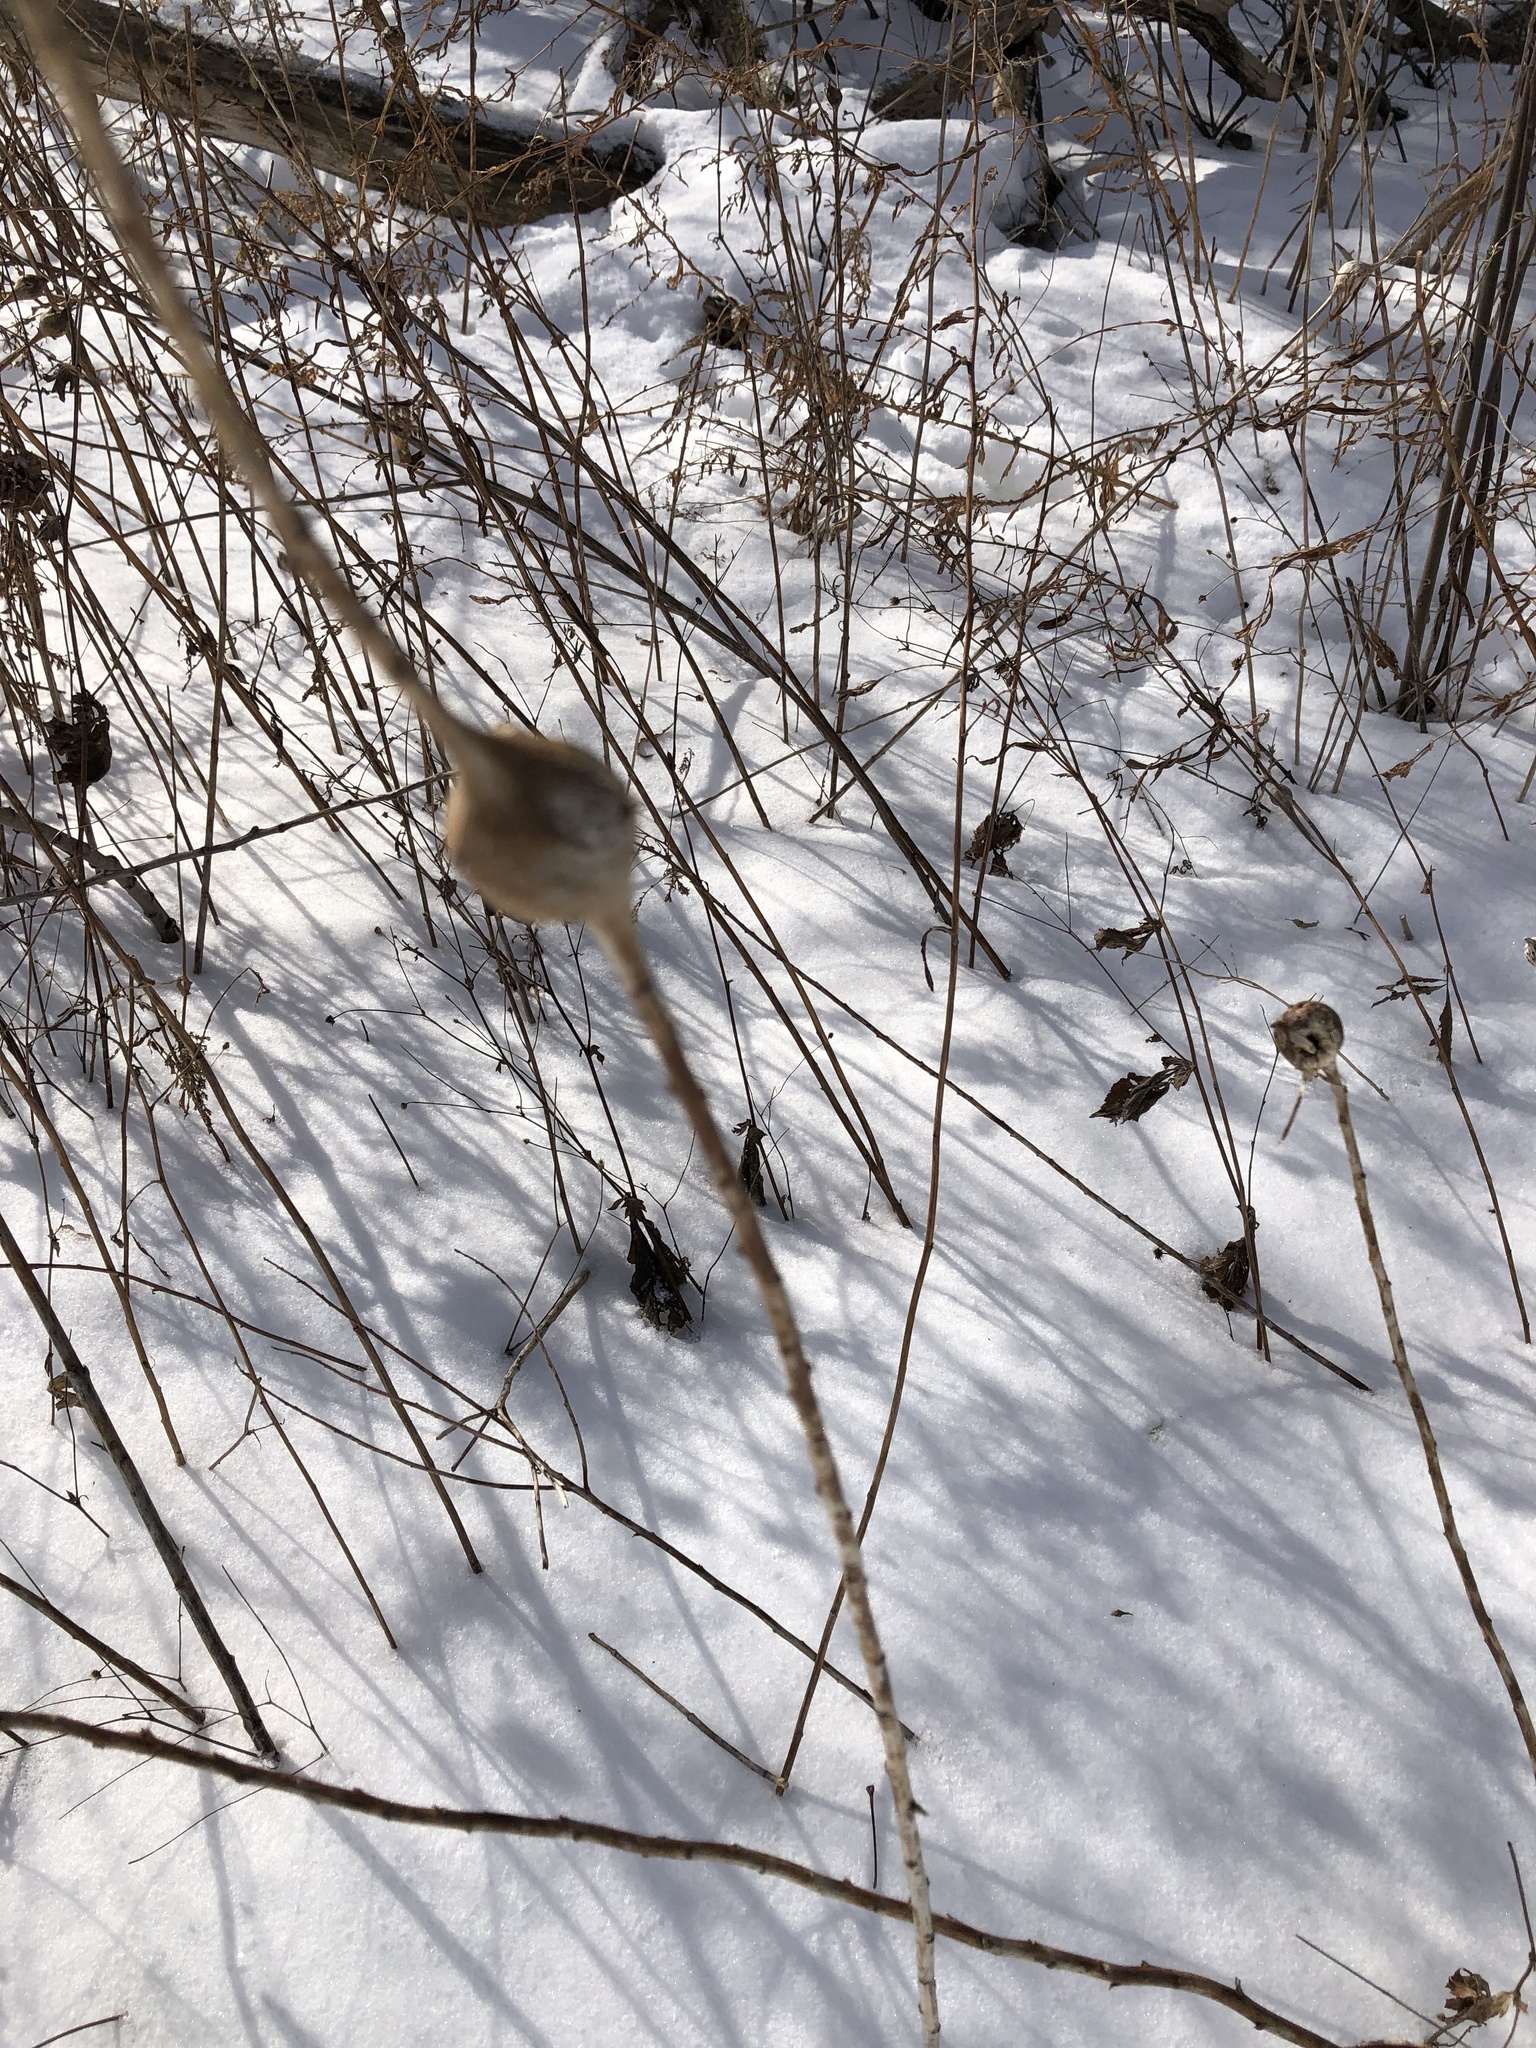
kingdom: Animalia
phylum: Arthropoda
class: Insecta
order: Diptera
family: Tephritidae
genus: Eurosta
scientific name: Eurosta solidaginis
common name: Goldenrod gall fly
